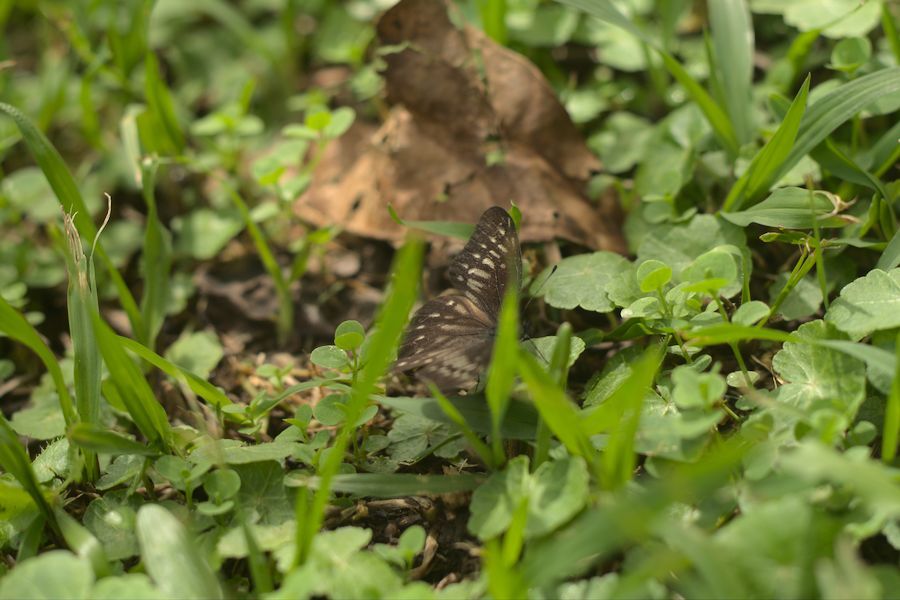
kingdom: Animalia
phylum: Arthropoda
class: Insecta
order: Lepidoptera
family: Pieridae
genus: Catasticta
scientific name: Catasticta hebra
